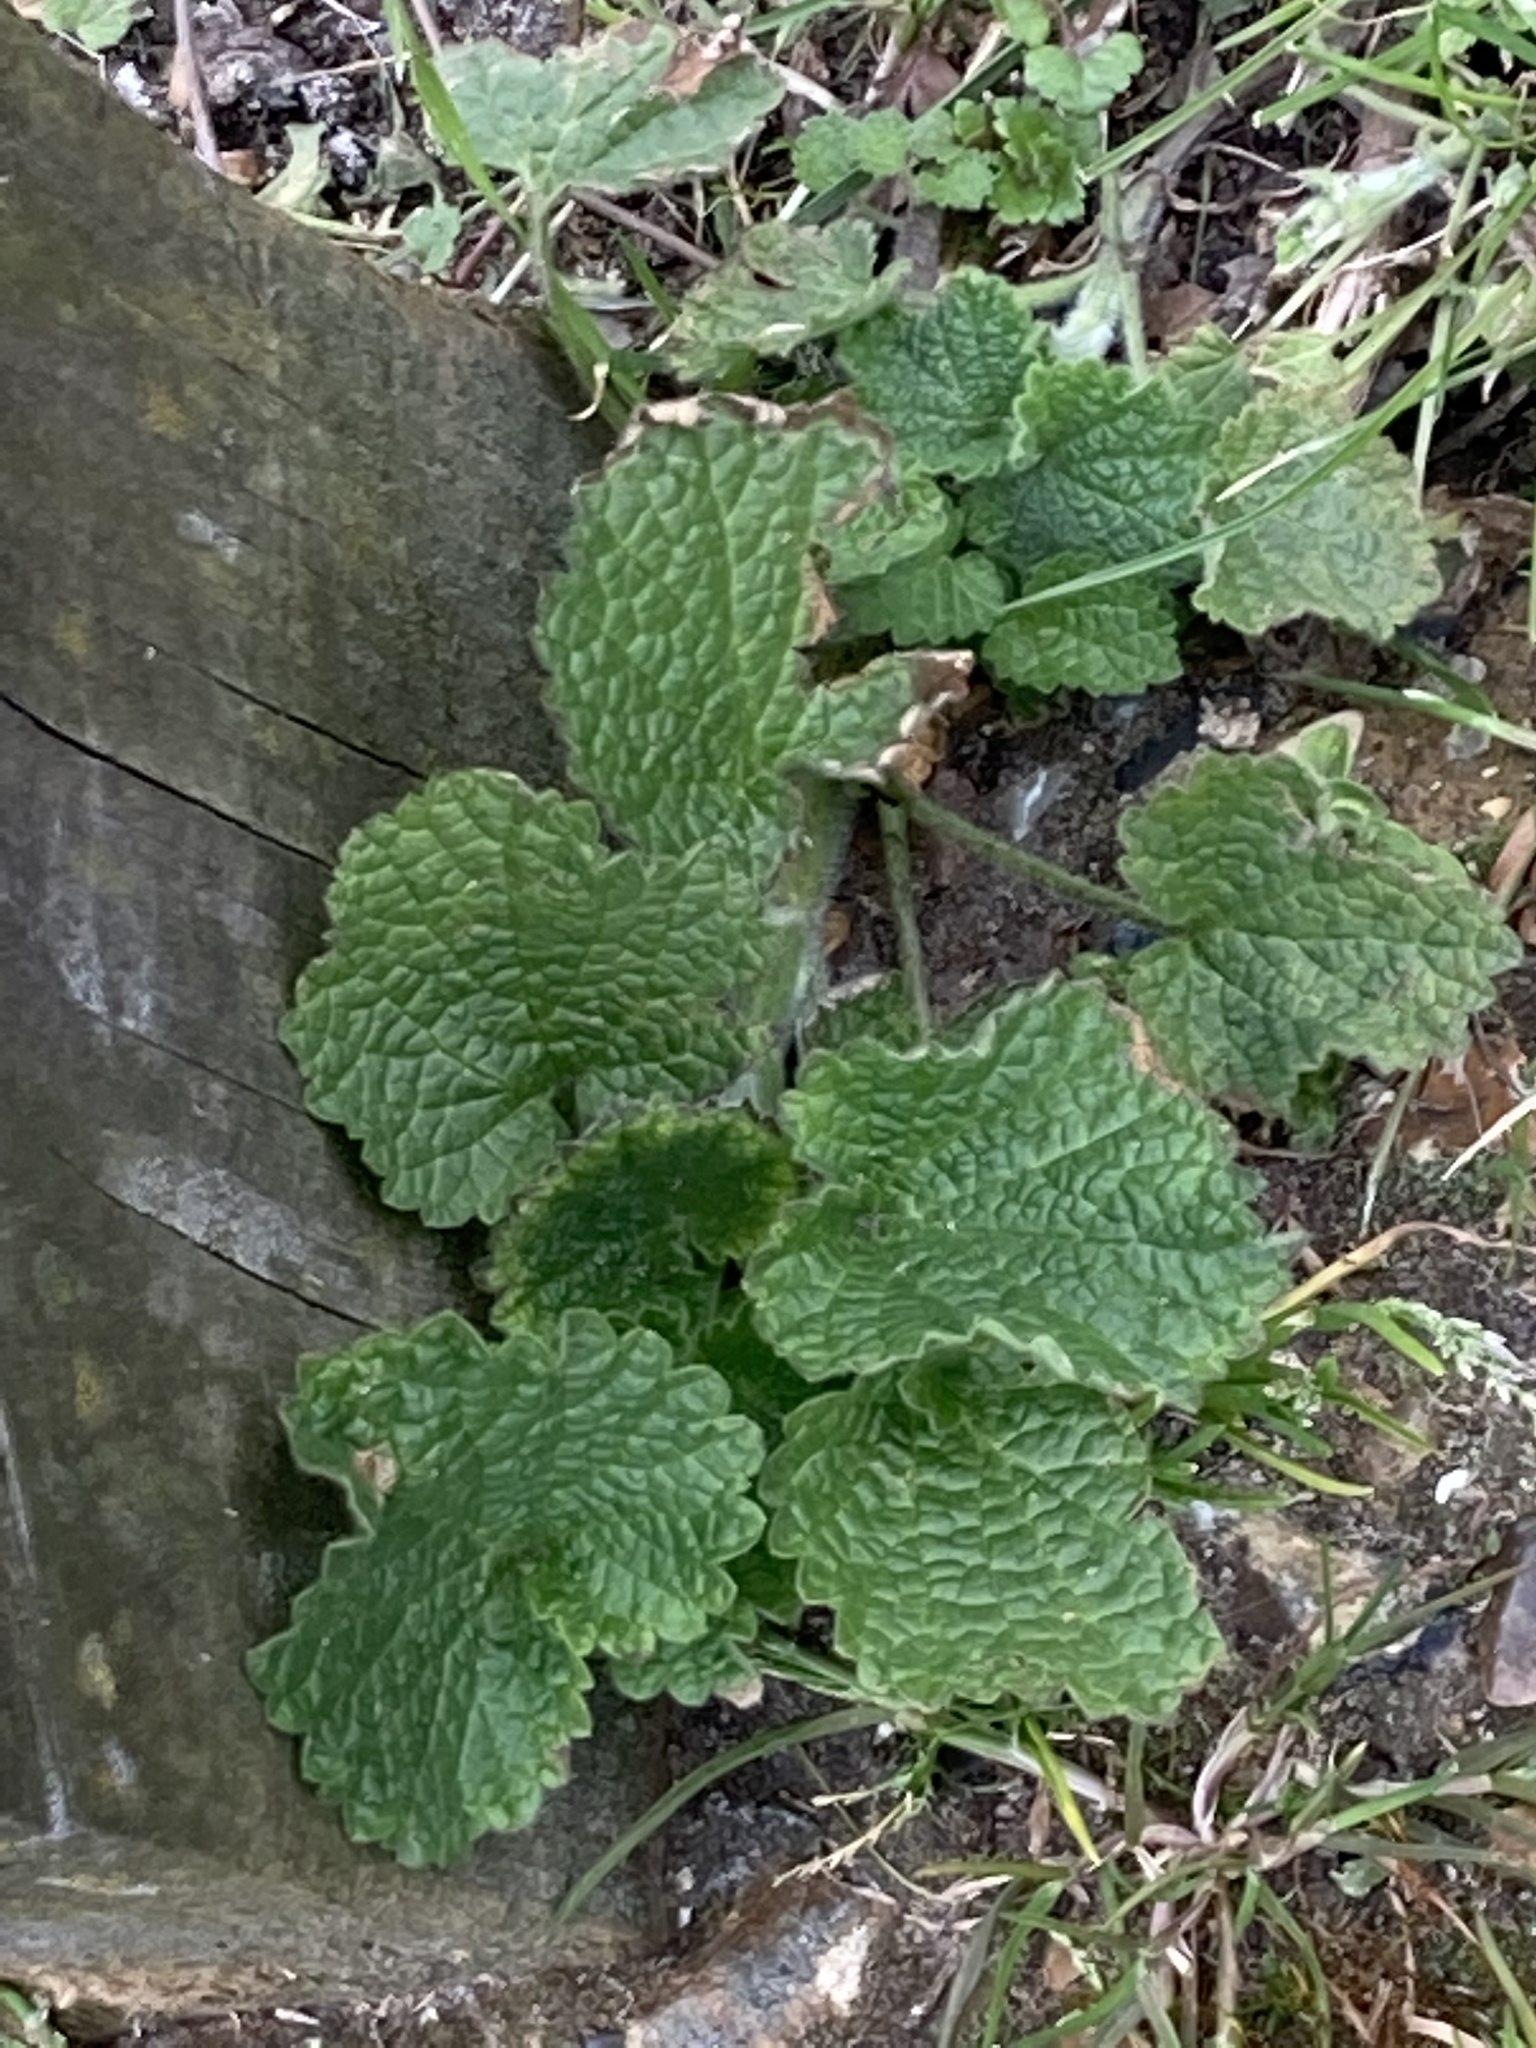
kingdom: Plantae
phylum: Tracheophyta
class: Magnoliopsida
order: Lamiales
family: Lamiaceae
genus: Ballota
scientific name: Ballota nigra
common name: Black horehound
